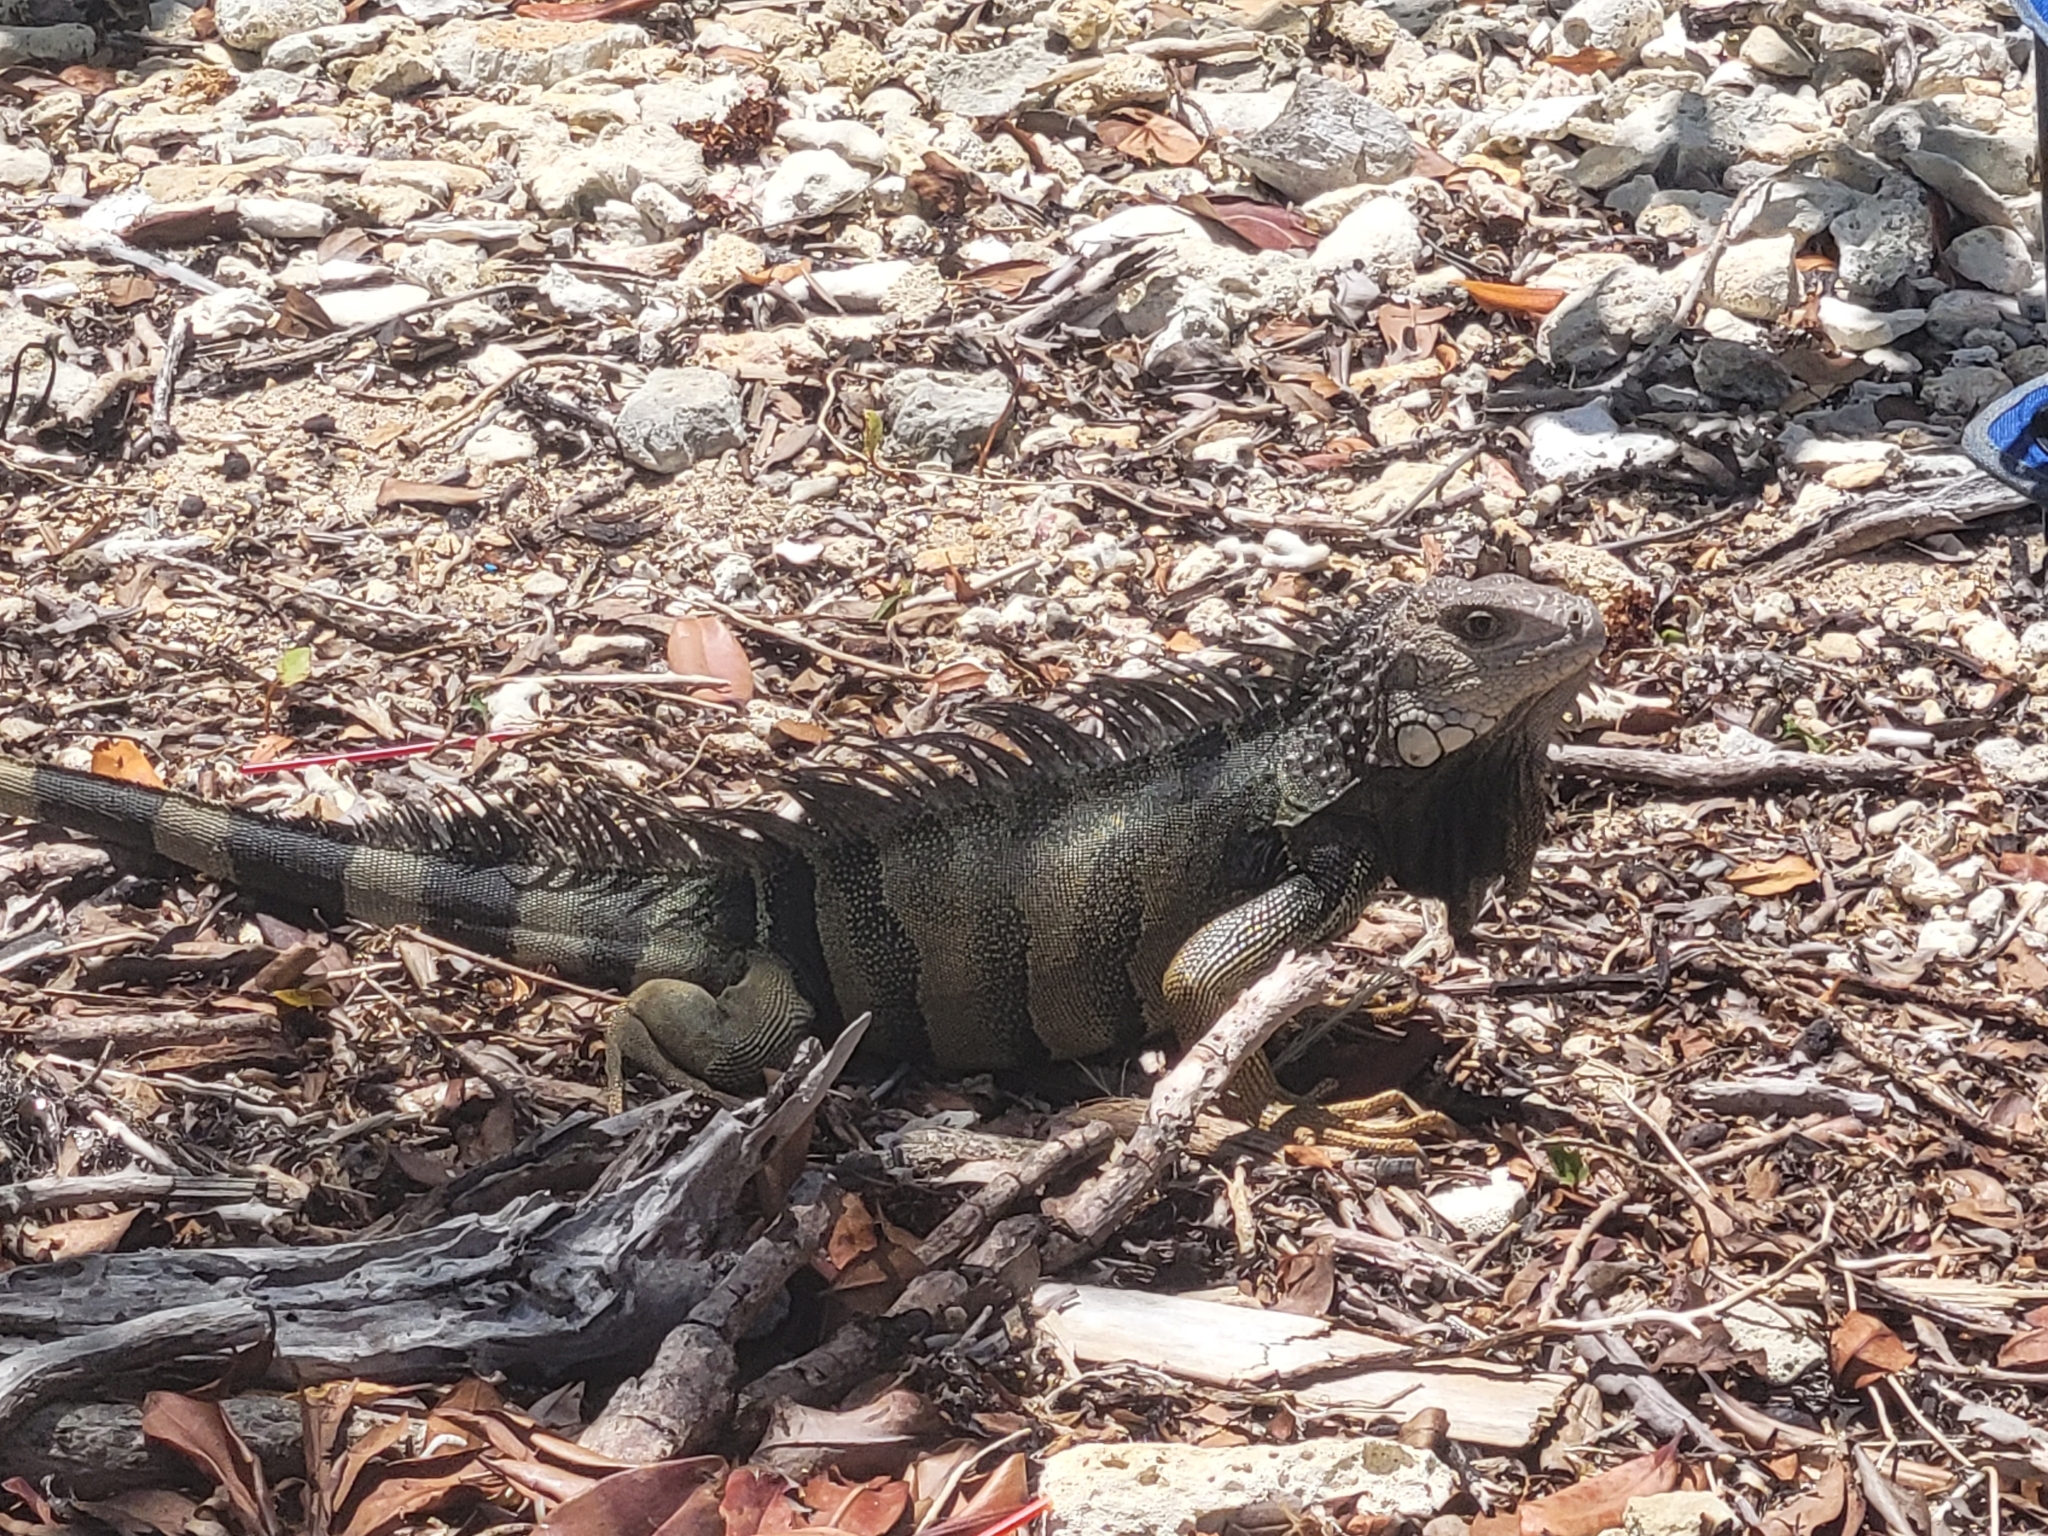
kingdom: Animalia
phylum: Chordata
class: Squamata
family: Iguanidae
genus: Iguana
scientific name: Iguana iguana
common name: Green iguana
